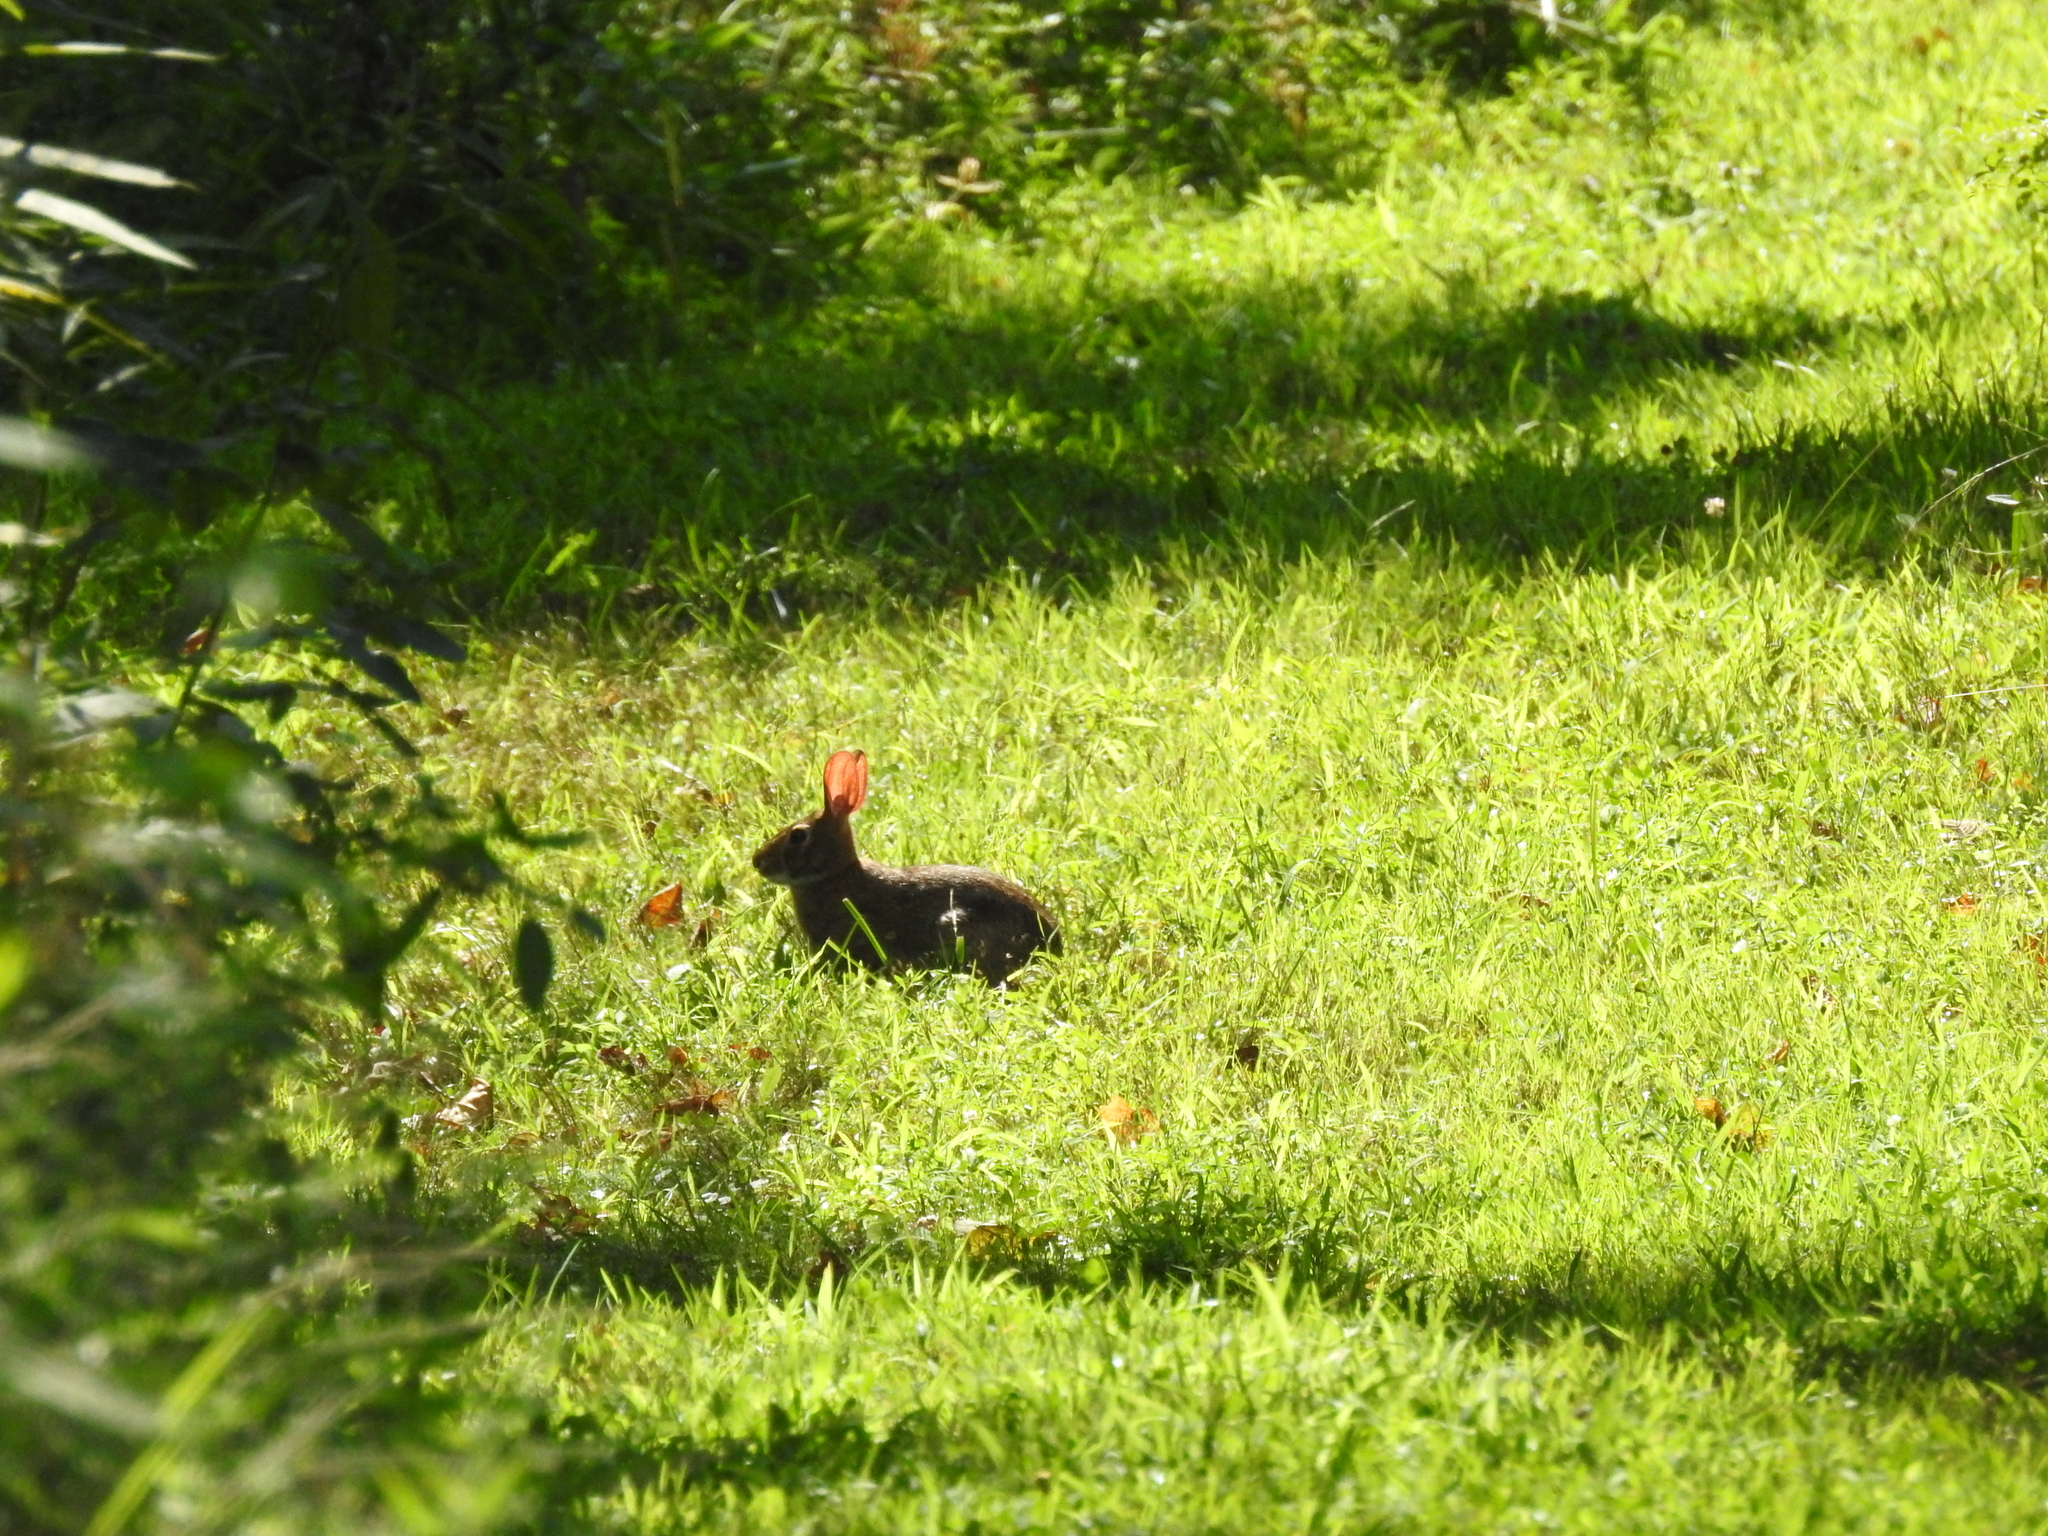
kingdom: Animalia
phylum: Chordata
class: Mammalia
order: Lagomorpha
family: Leporidae
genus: Sylvilagus
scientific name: Sylvilagus floridanus
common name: Eastern cottontail
